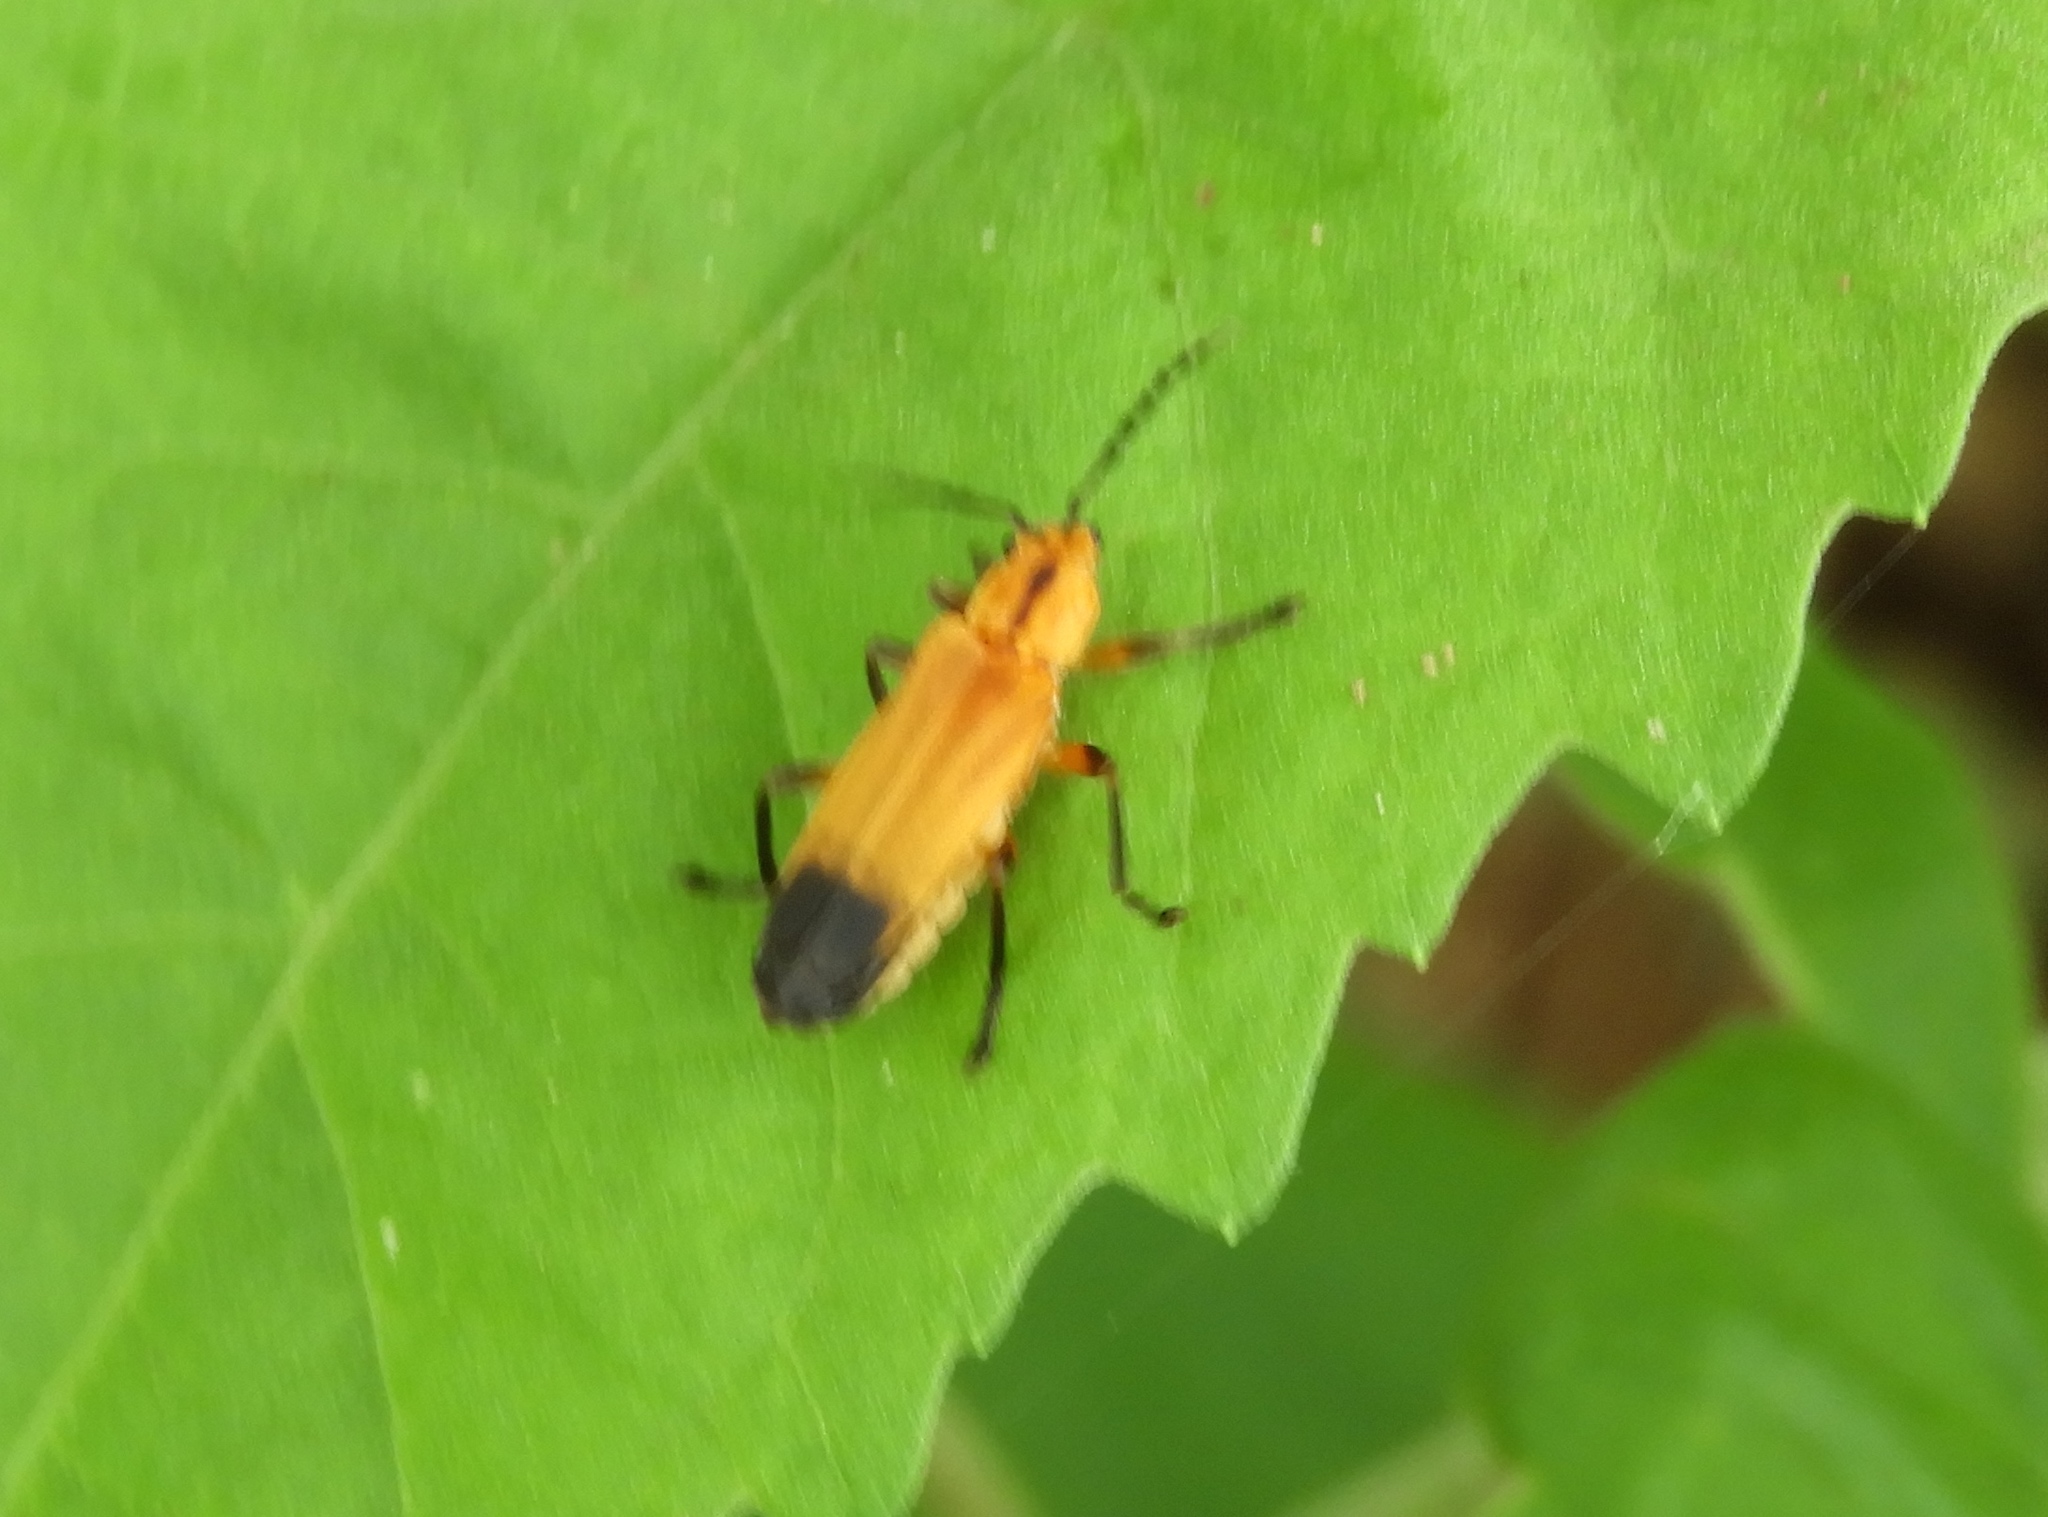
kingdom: Animalia
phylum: Arthropoda
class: Insecta
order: Coleoptera
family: Cantharidae
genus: Daiphron
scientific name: Daiphron proteum
